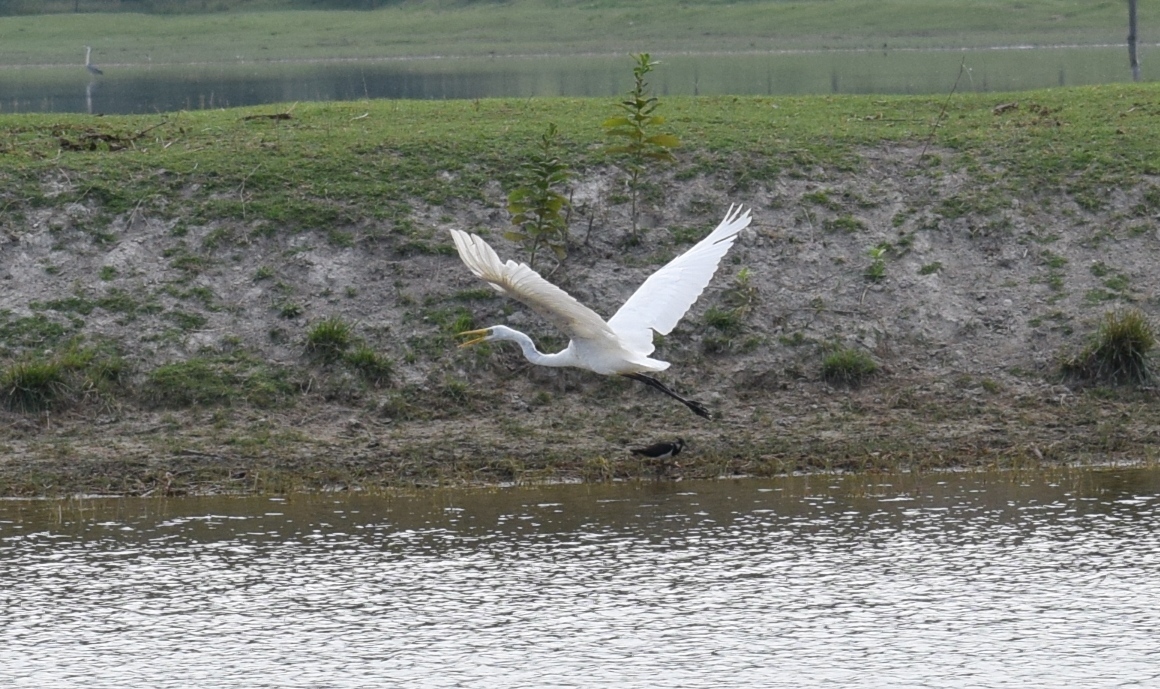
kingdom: Animalia
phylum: Chordata
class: Aves
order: Pelecaniformes
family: Ardeidae
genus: Ardea
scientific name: Ardea alba
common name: Great egret
